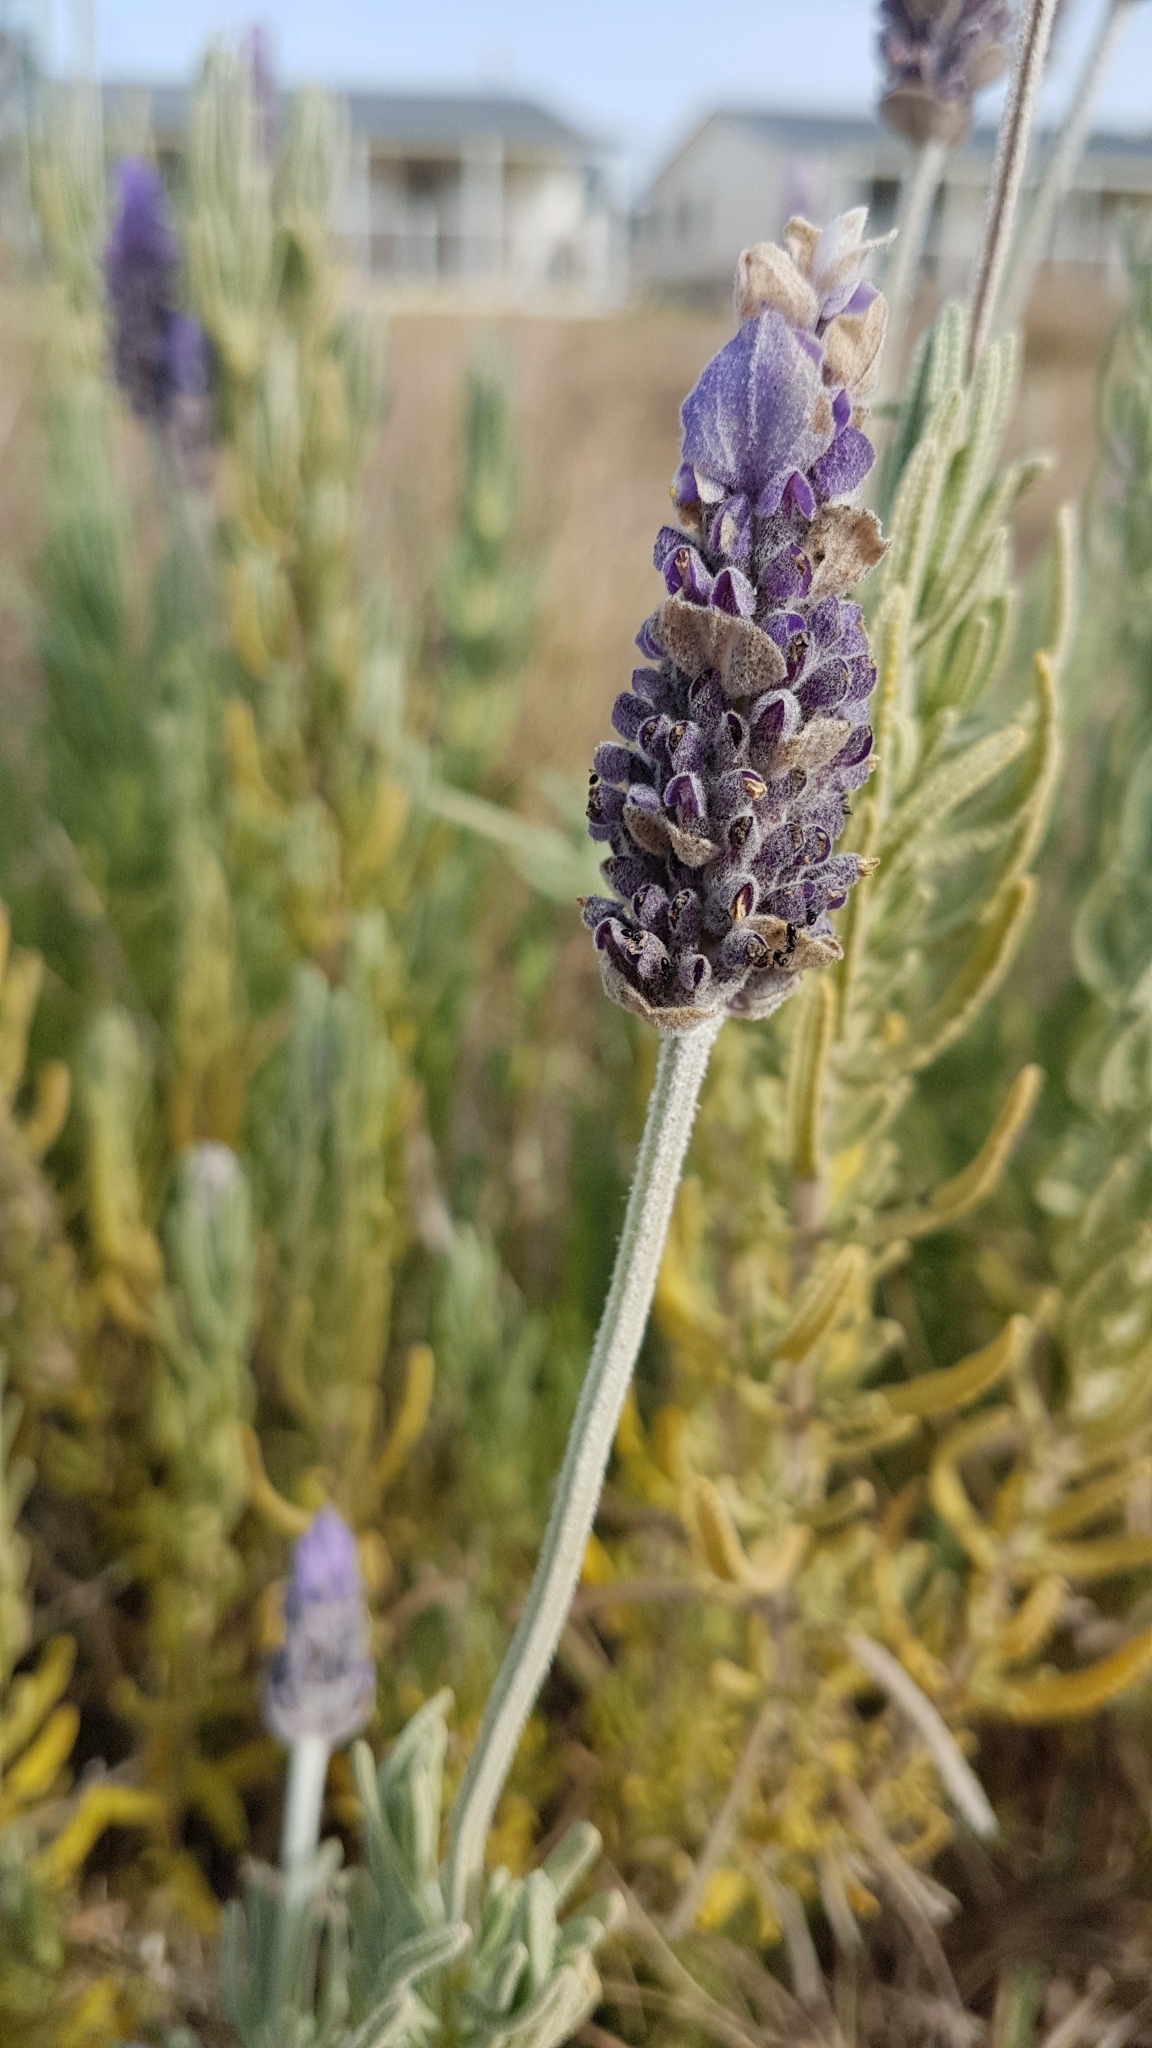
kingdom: Plantae
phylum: Tracheophyta
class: Magnoliopsida
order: Lamiales
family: Lamiaceae
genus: Lavandula
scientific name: Lavandula dentata
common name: French lavender
